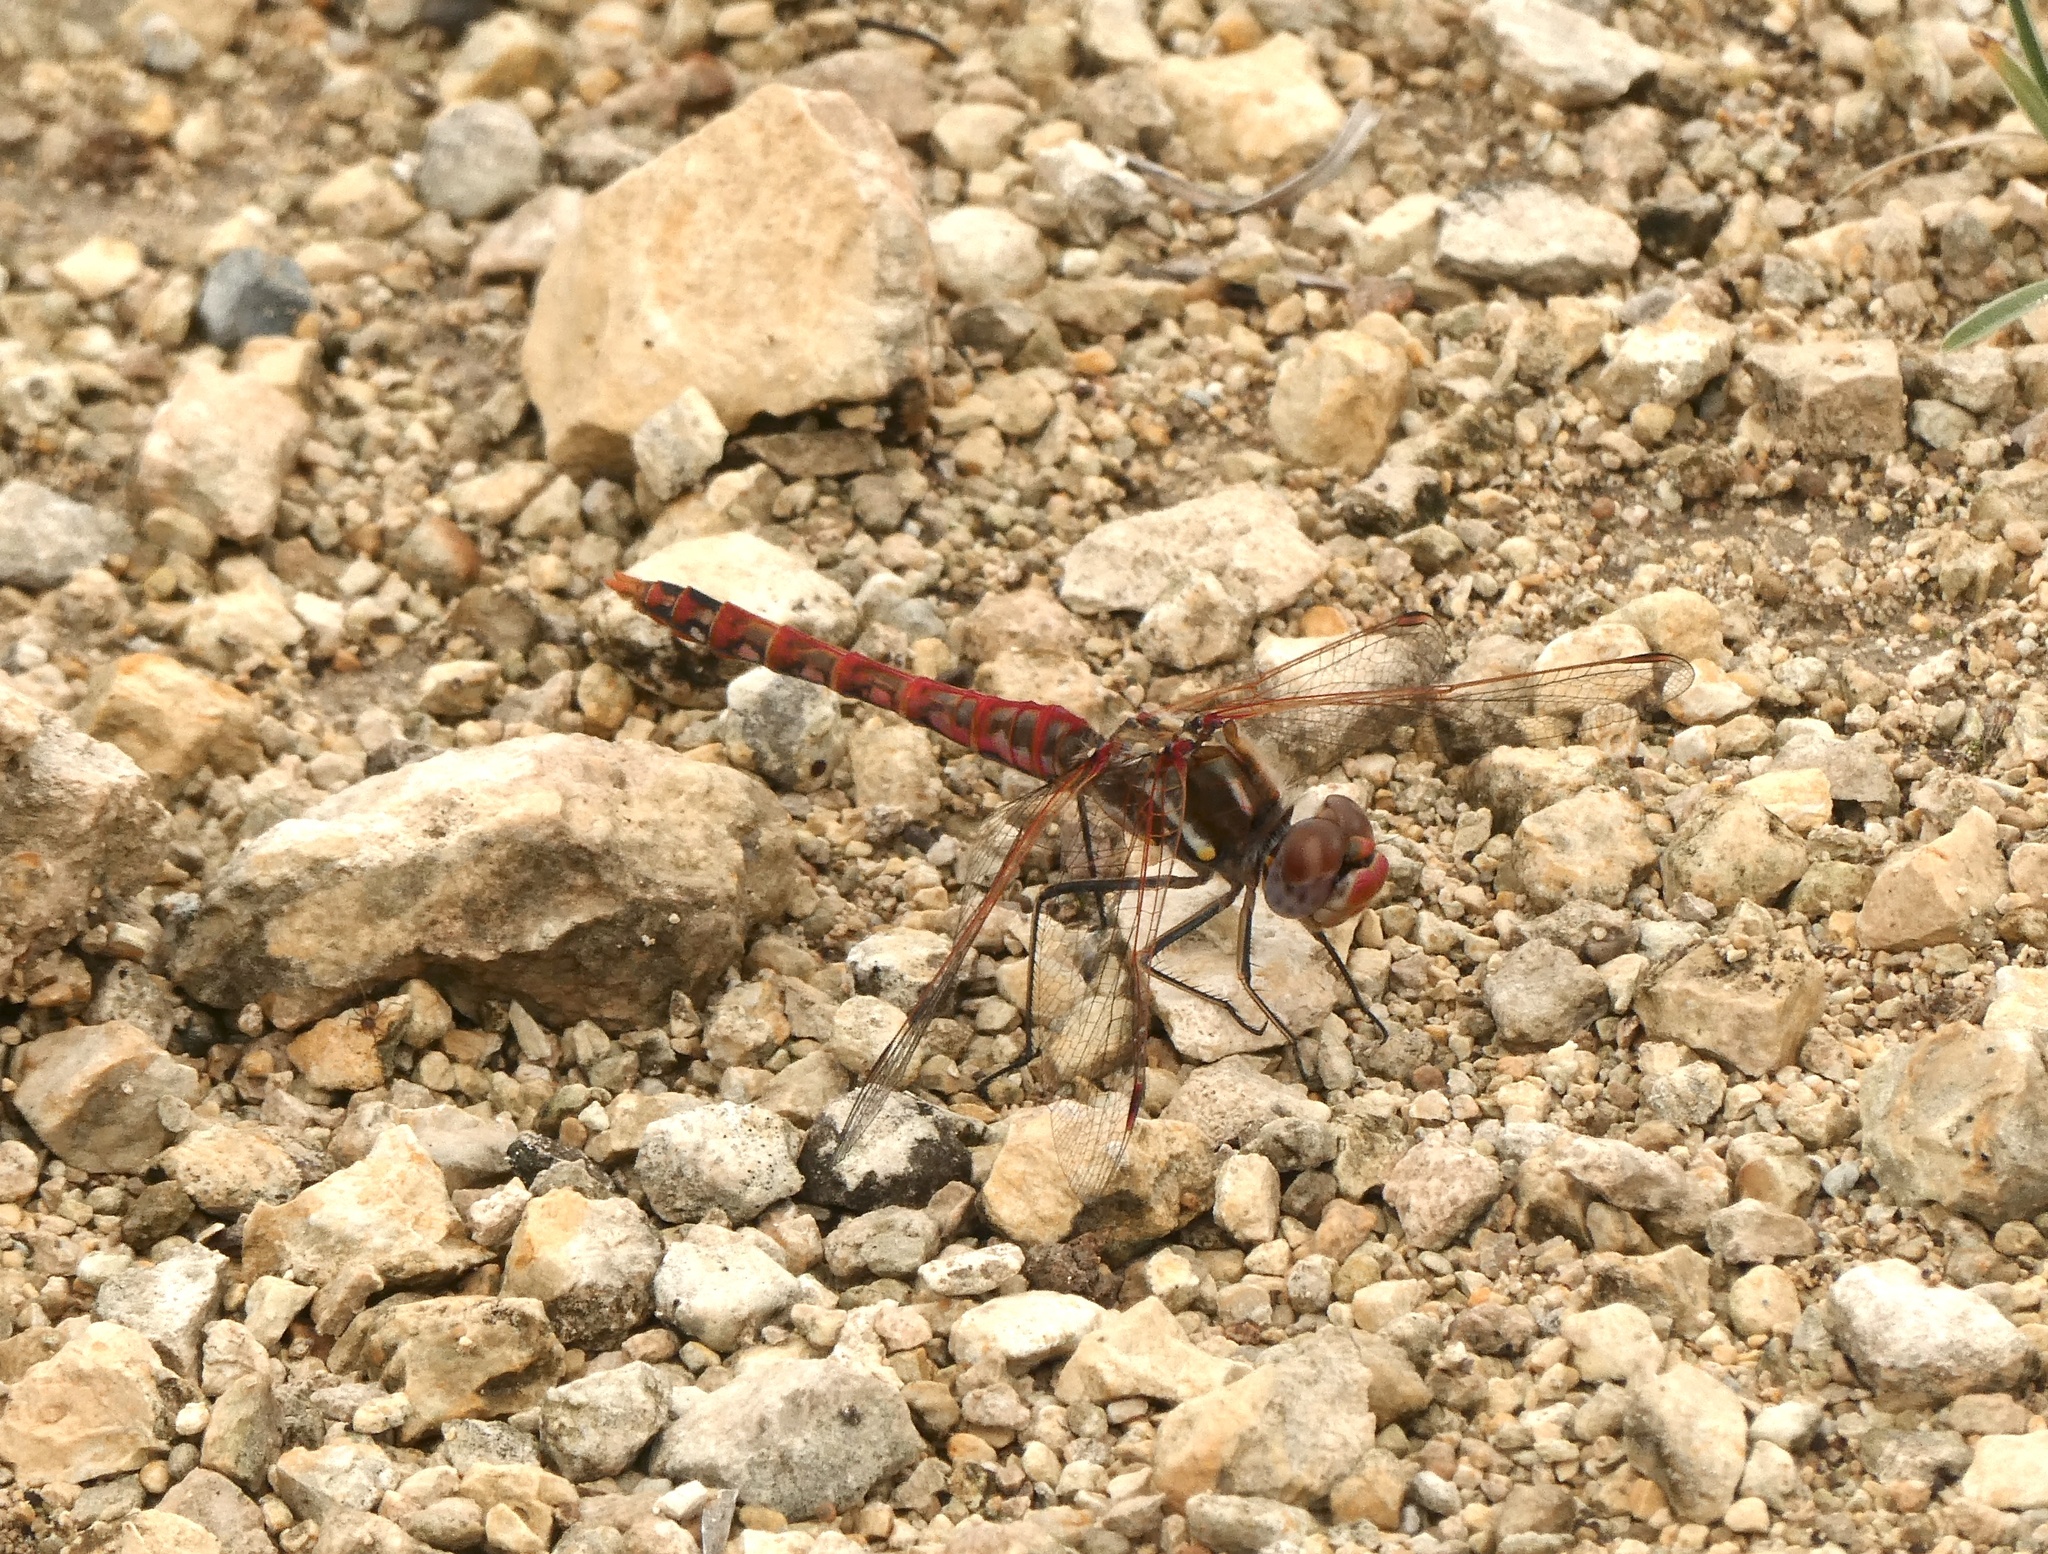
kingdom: Animalia
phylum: Arthropoda
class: Insecta
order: Odonata
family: Libellulidae
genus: Sympetrum
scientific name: Sympetrum corruptum
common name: Variegated meadowhawk
